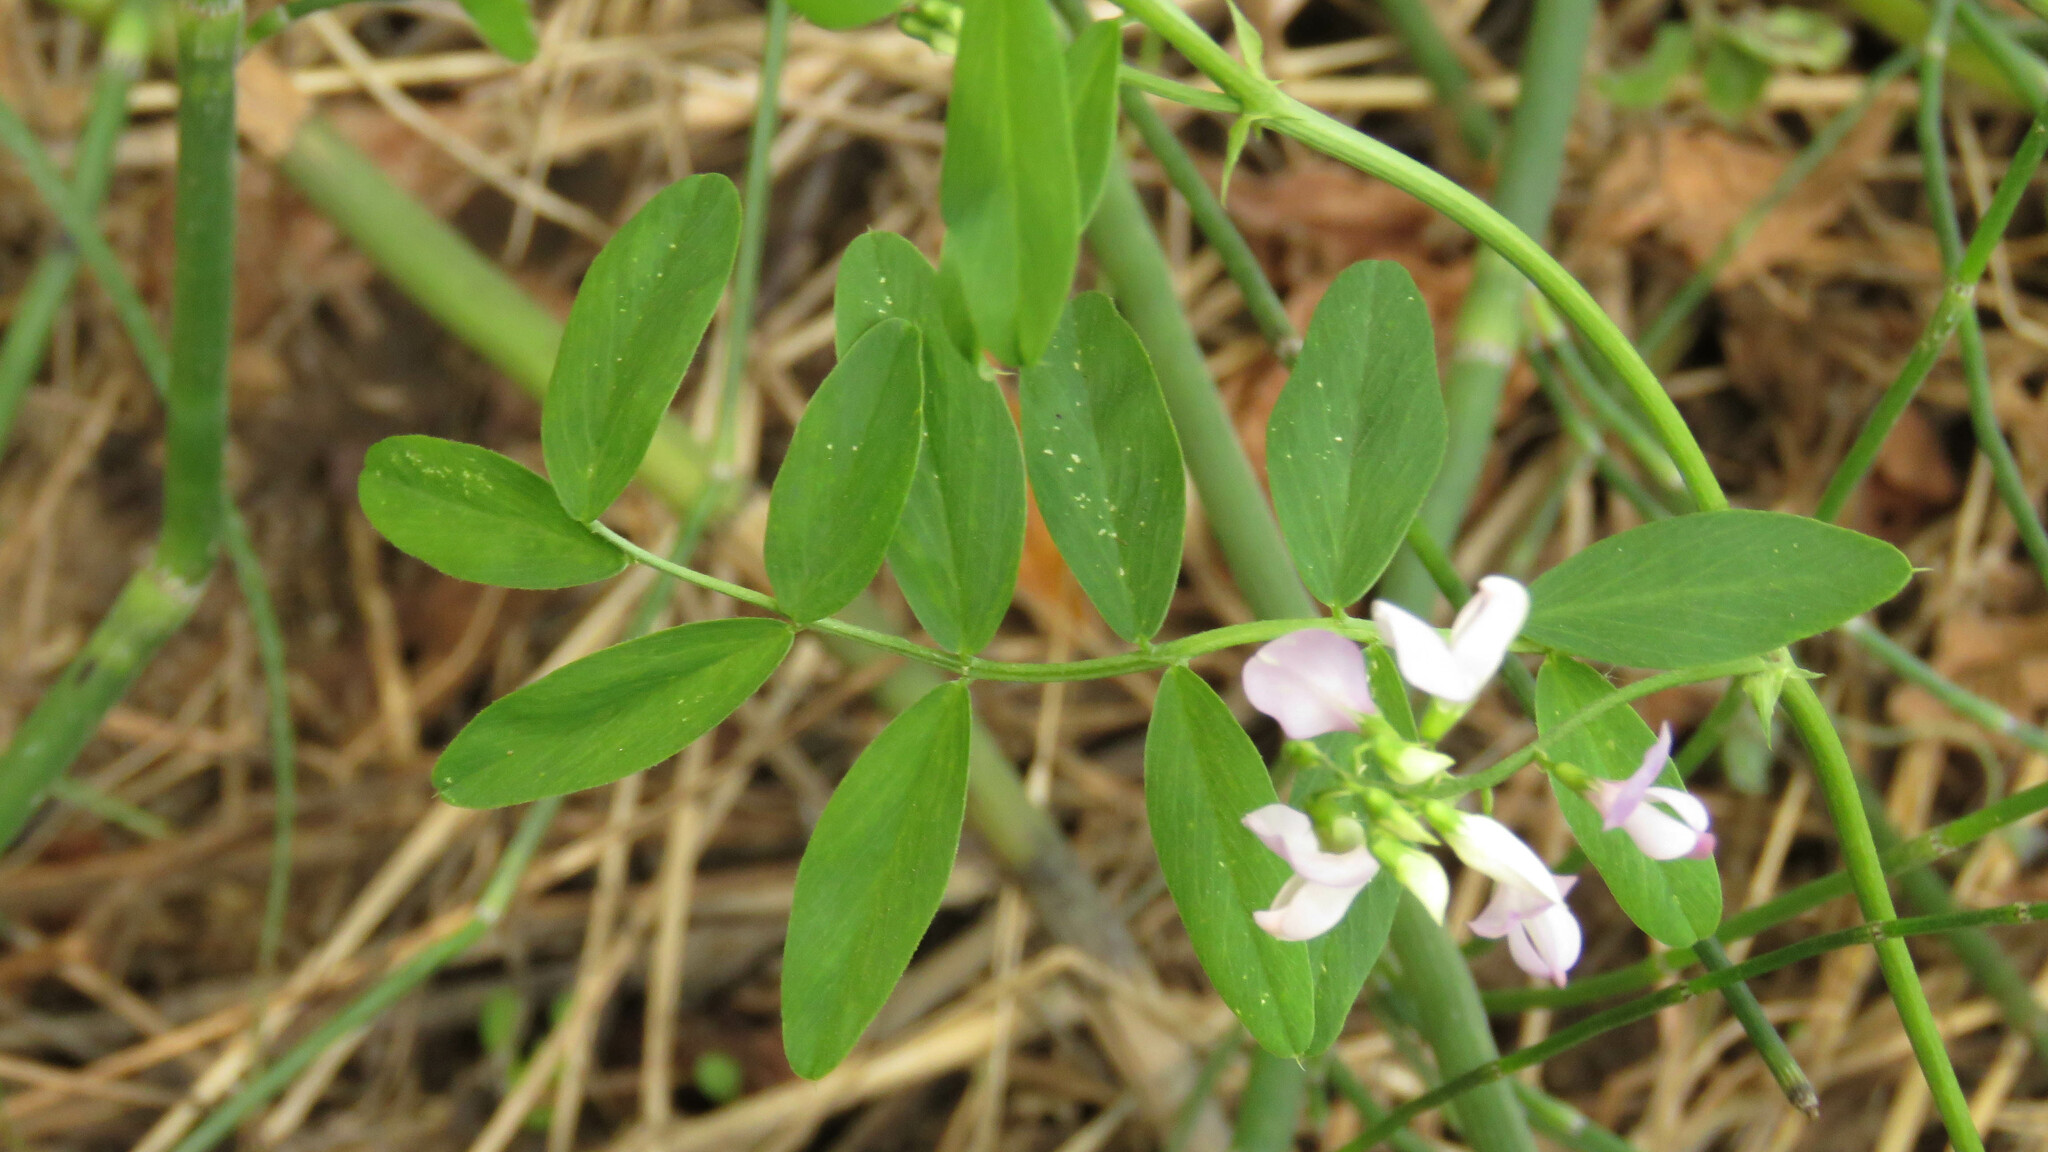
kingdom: Plantae
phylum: Tracheophyta
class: Magnoliopsida
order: Fabales
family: Fabaceae
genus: Galega
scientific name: Galega officinalis
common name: Goat's-rue
